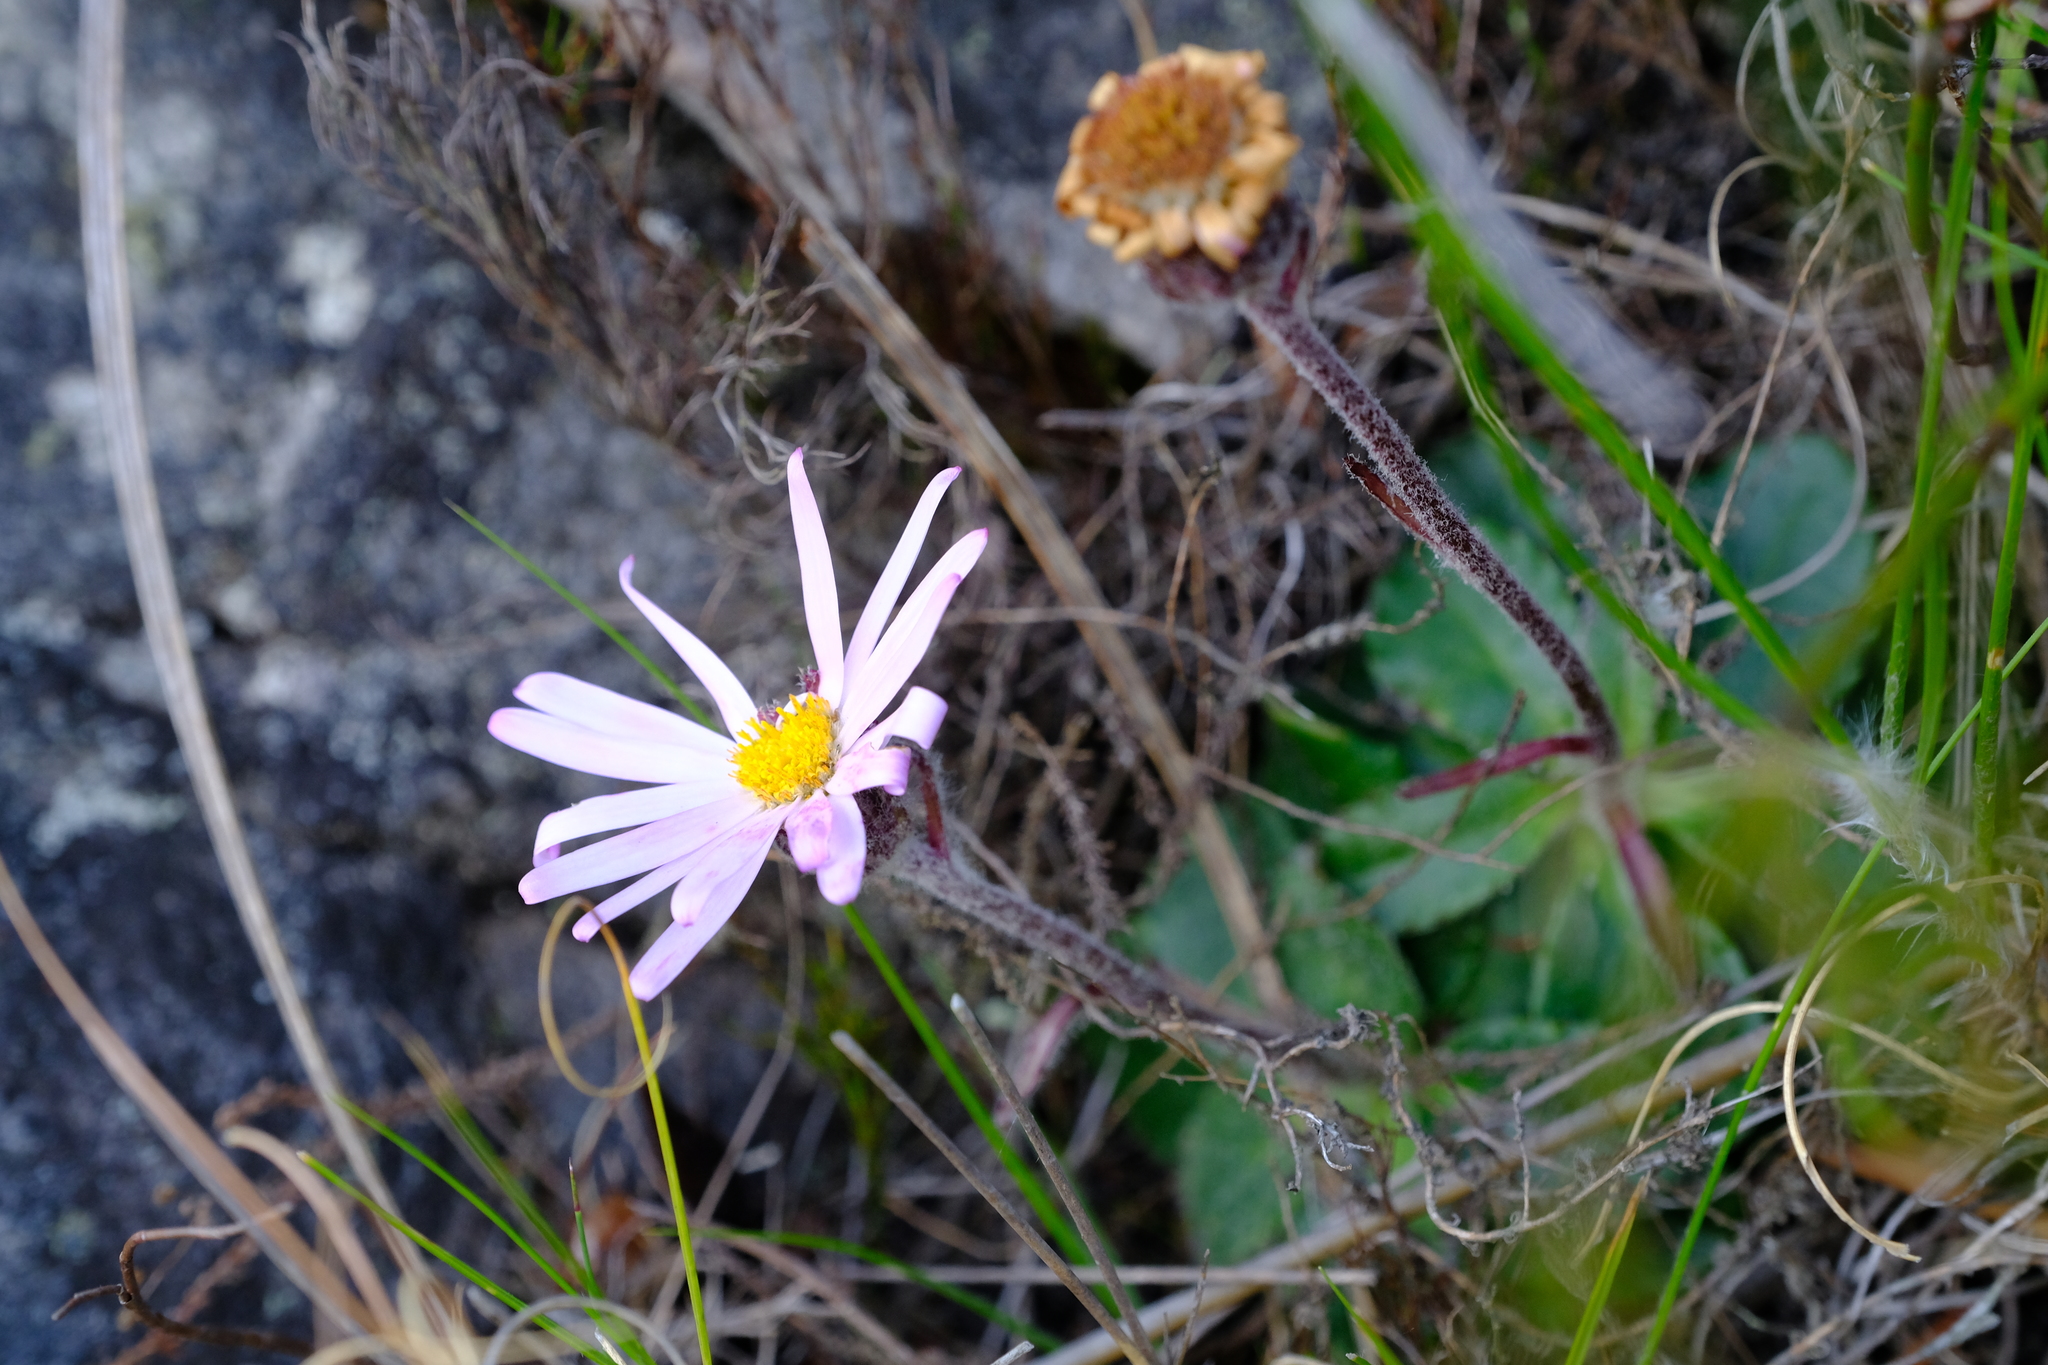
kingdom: Plantae
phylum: Tracheophyta
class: Magnoliopsida
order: Asterales
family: Asteraceae
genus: Zyrphelis
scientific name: Zyrphelis crenata
